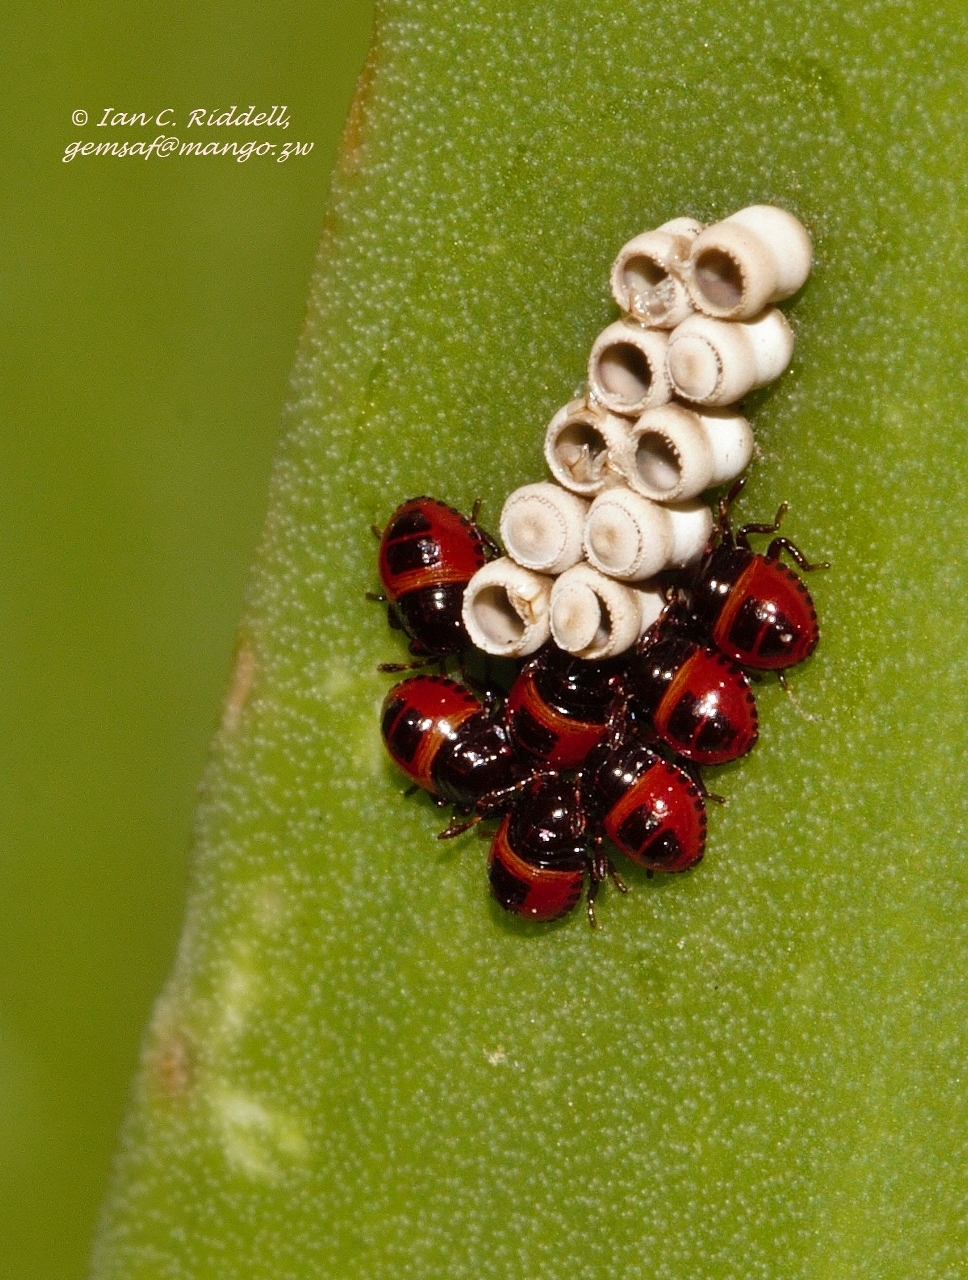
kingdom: Animalia
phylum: Arthropoda
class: Insecta
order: Hemiptera
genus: Flaminia
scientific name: Flaminia
